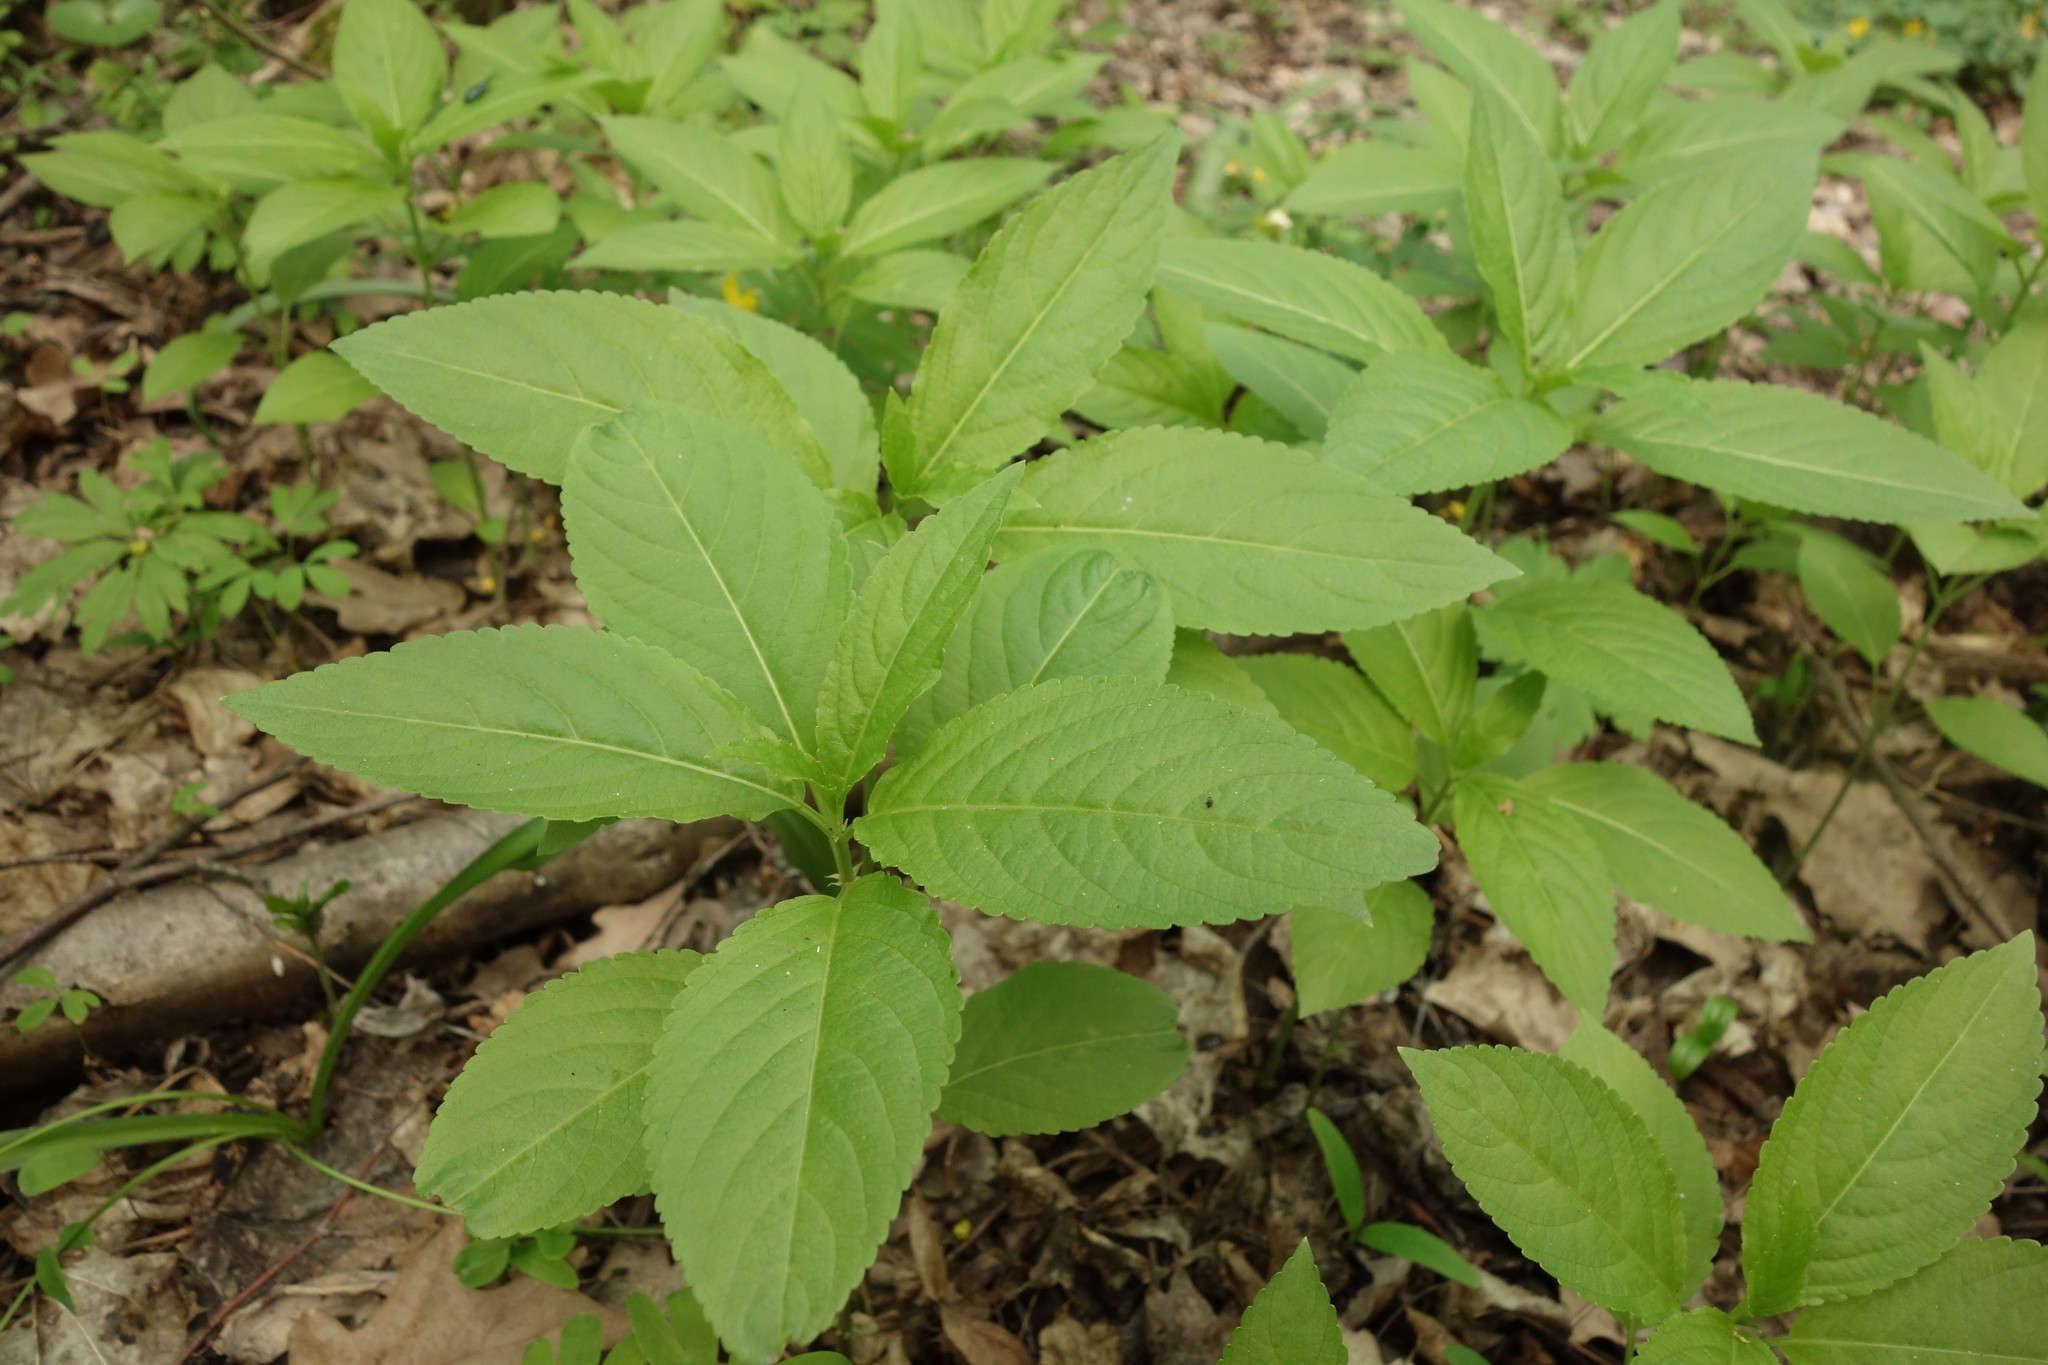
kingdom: Plantae
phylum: Tracheophyta
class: Magnoliopsida
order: Malpighiales
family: Euphorbiaceae
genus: Mercurialis
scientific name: Mercurialis perennis
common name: Dog mercury
